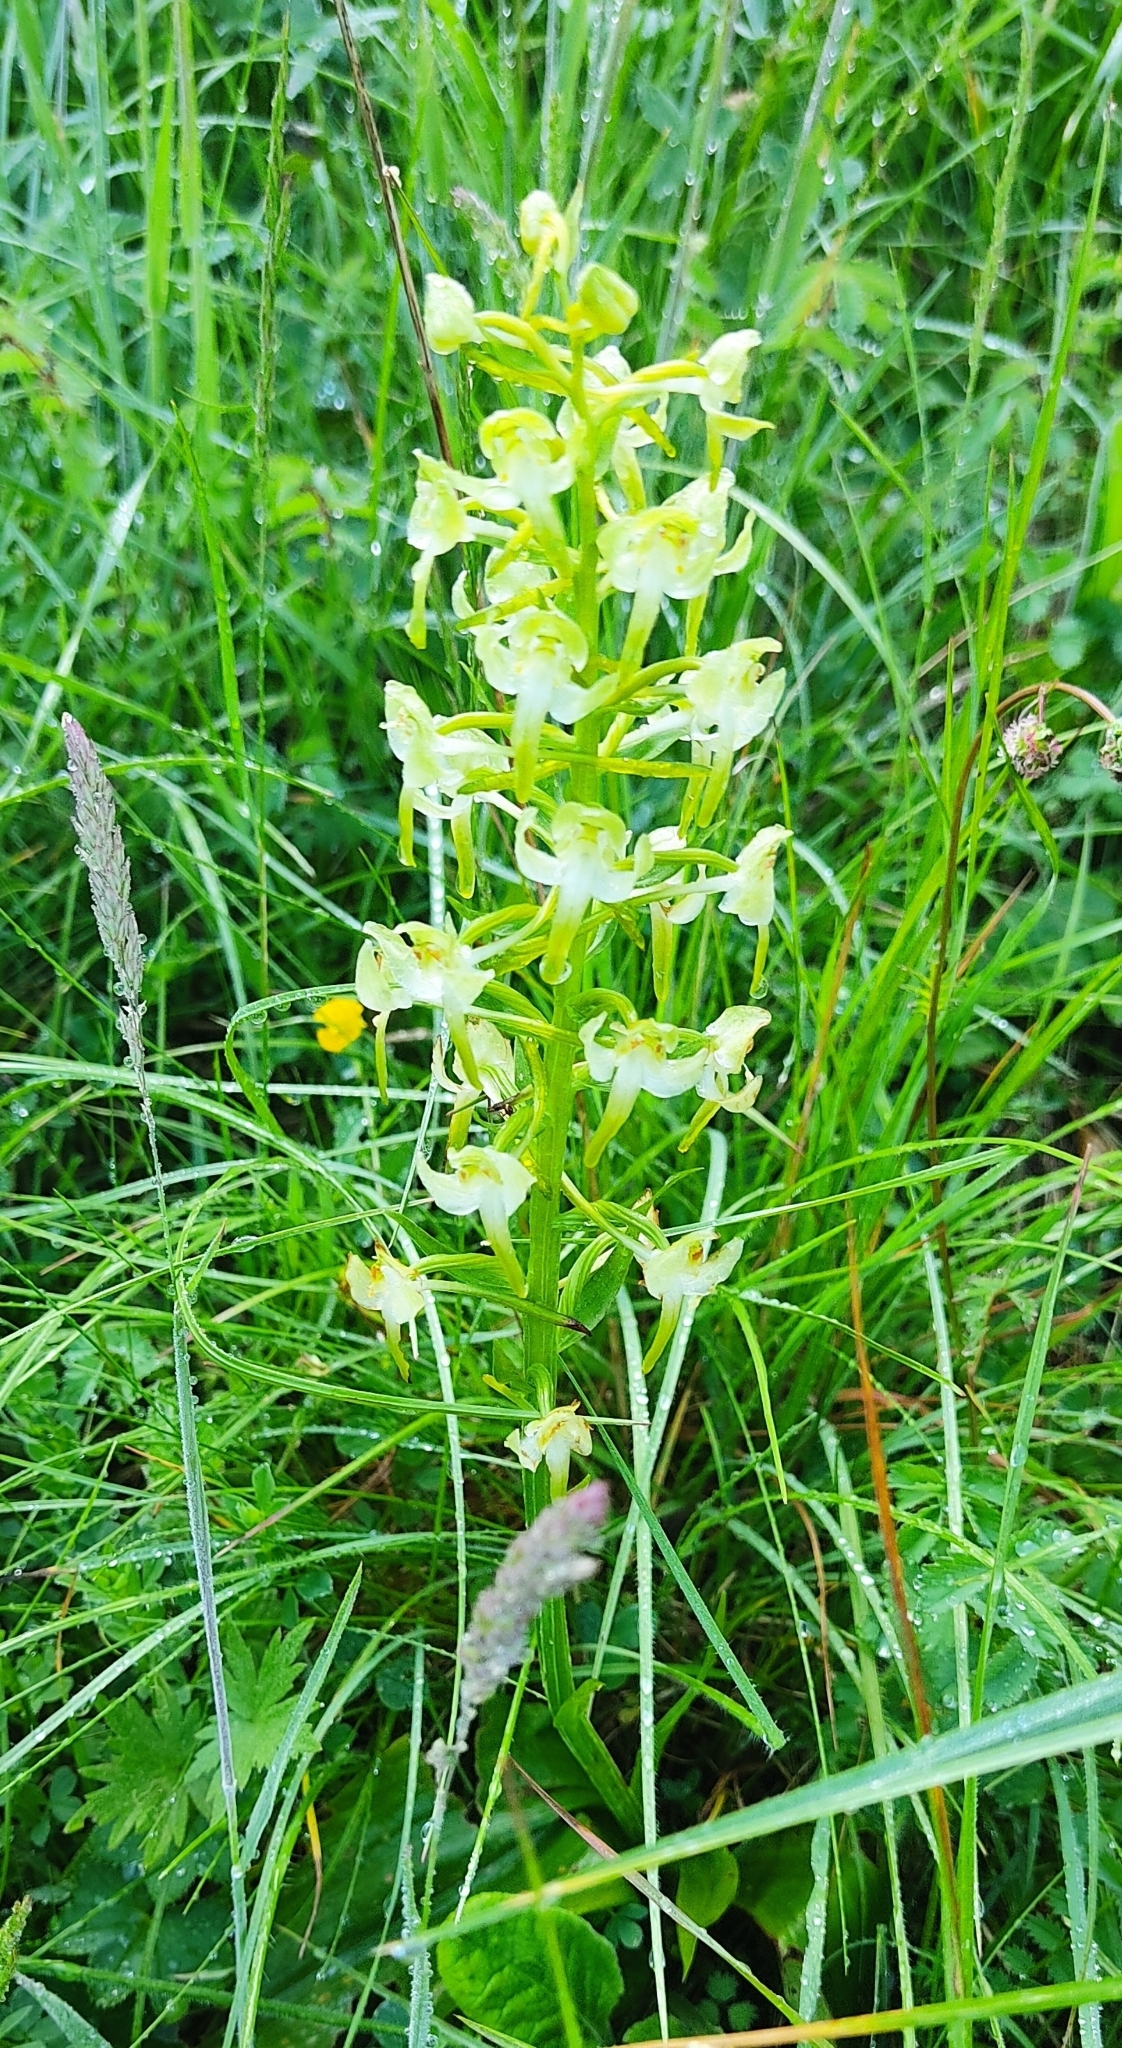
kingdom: Plantae
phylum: Tracheophyta
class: Liliopsida
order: Asparagales
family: Orchidaceae
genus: Platanthera
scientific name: Platanthera chlorantha
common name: Greater butterfly-orchid
